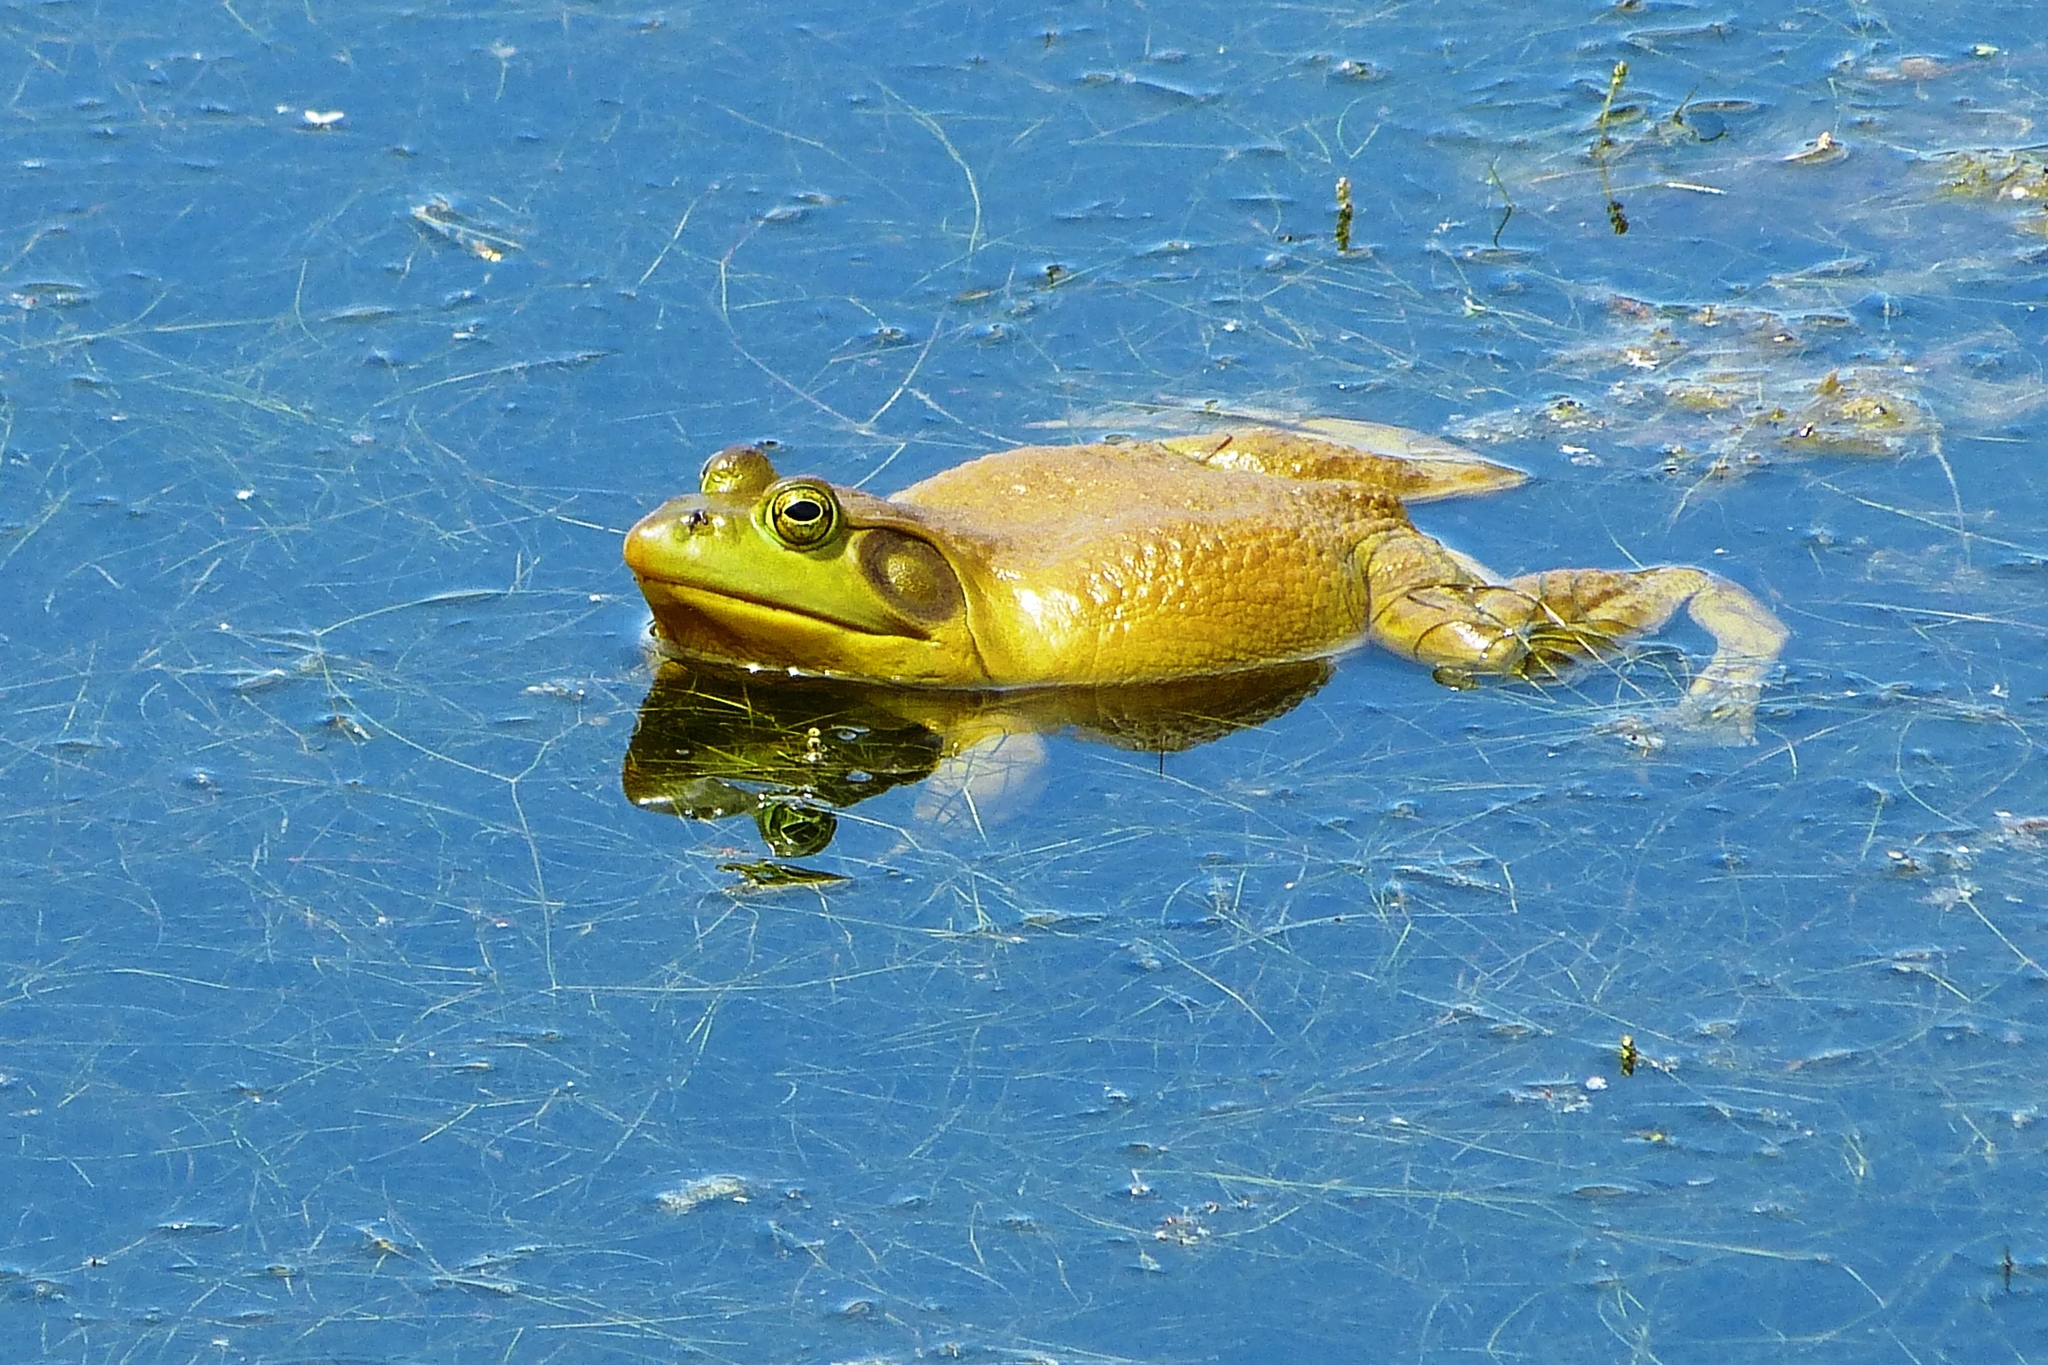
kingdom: Animalia
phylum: Chordata
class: Amphibia
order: Anura
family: Ranidae
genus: Lithobates
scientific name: Lithobates catesbeianus
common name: American bullfrog
